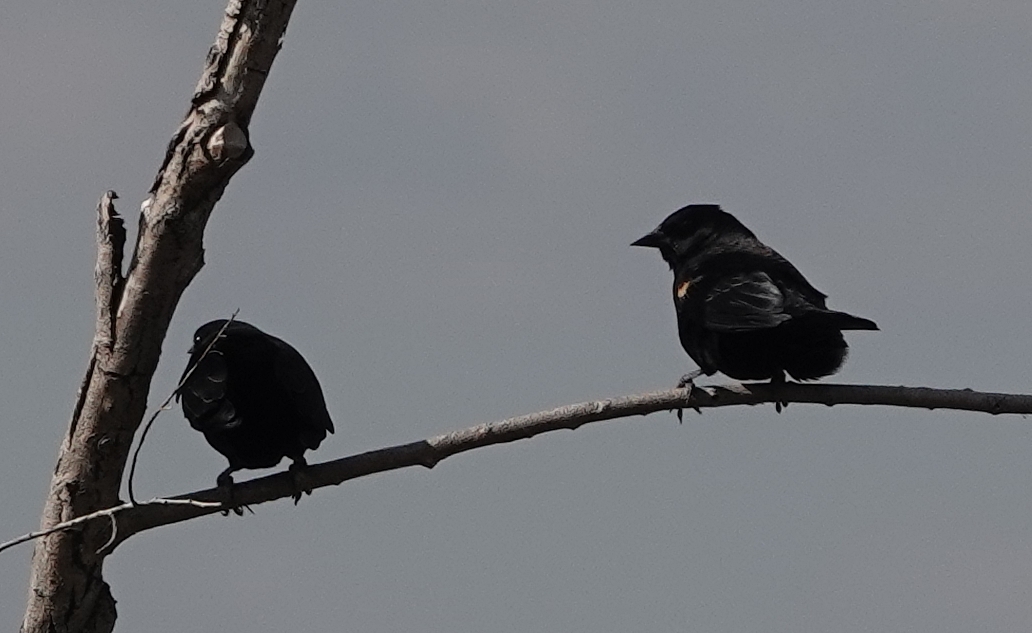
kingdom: Animalia
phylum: Chordata
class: Aves
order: Passeriformes
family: Icteridae
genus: Agelaius
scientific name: Agelaius phoeniceus
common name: Red-winged blackbird
